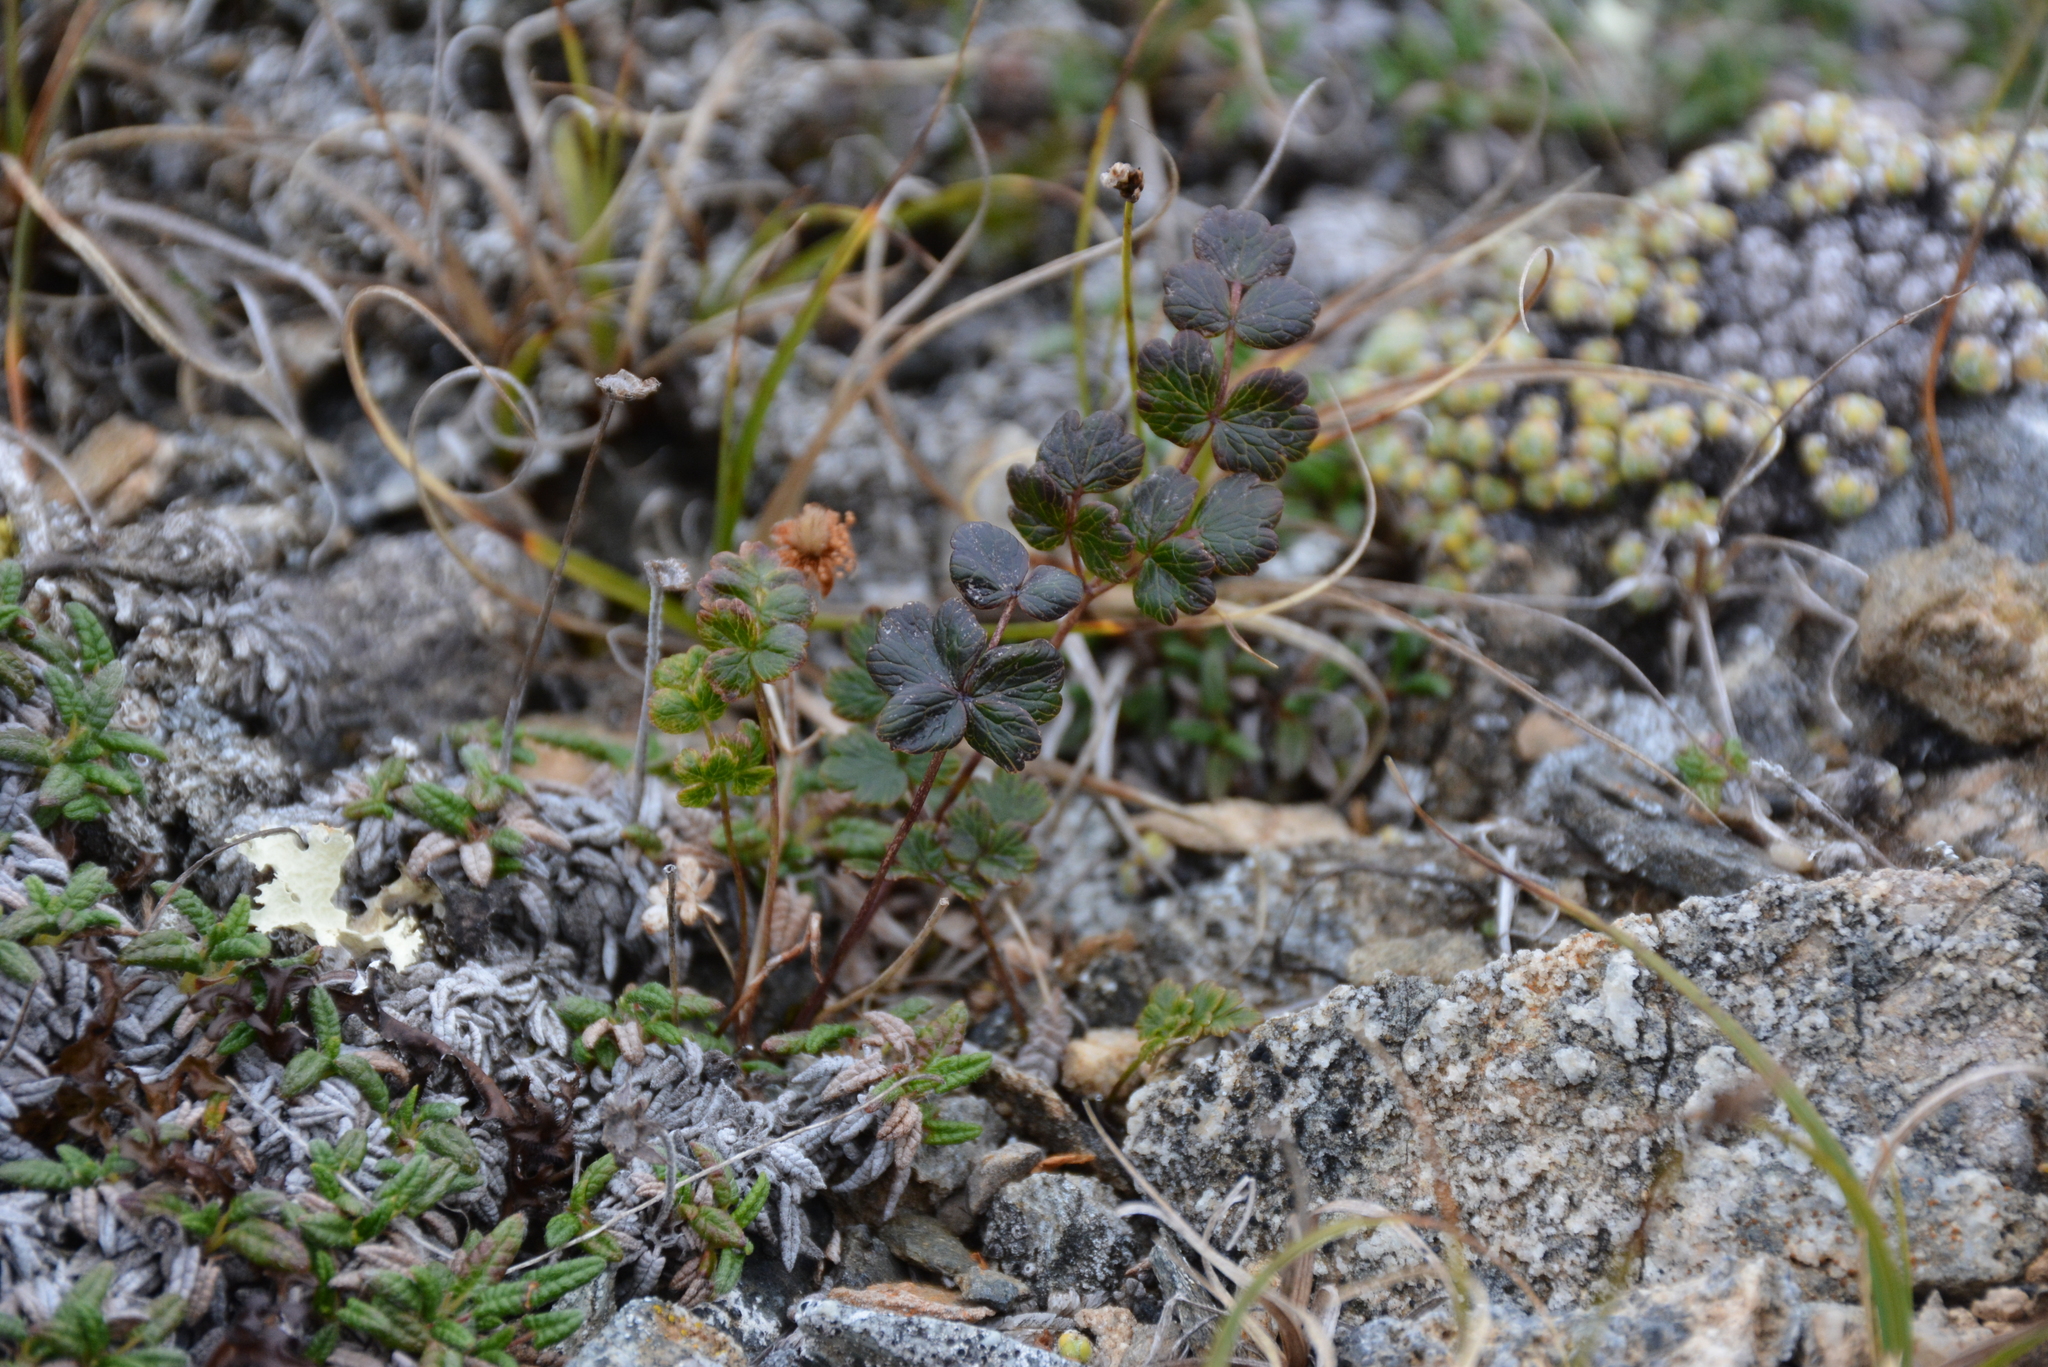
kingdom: Plantae
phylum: Tracheophyta
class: Magnoliopsida
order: Ranunculales
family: Ranunculaceae
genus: Thalictrum
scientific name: Thalictrum alpinum
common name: Alpine meadow-rue
